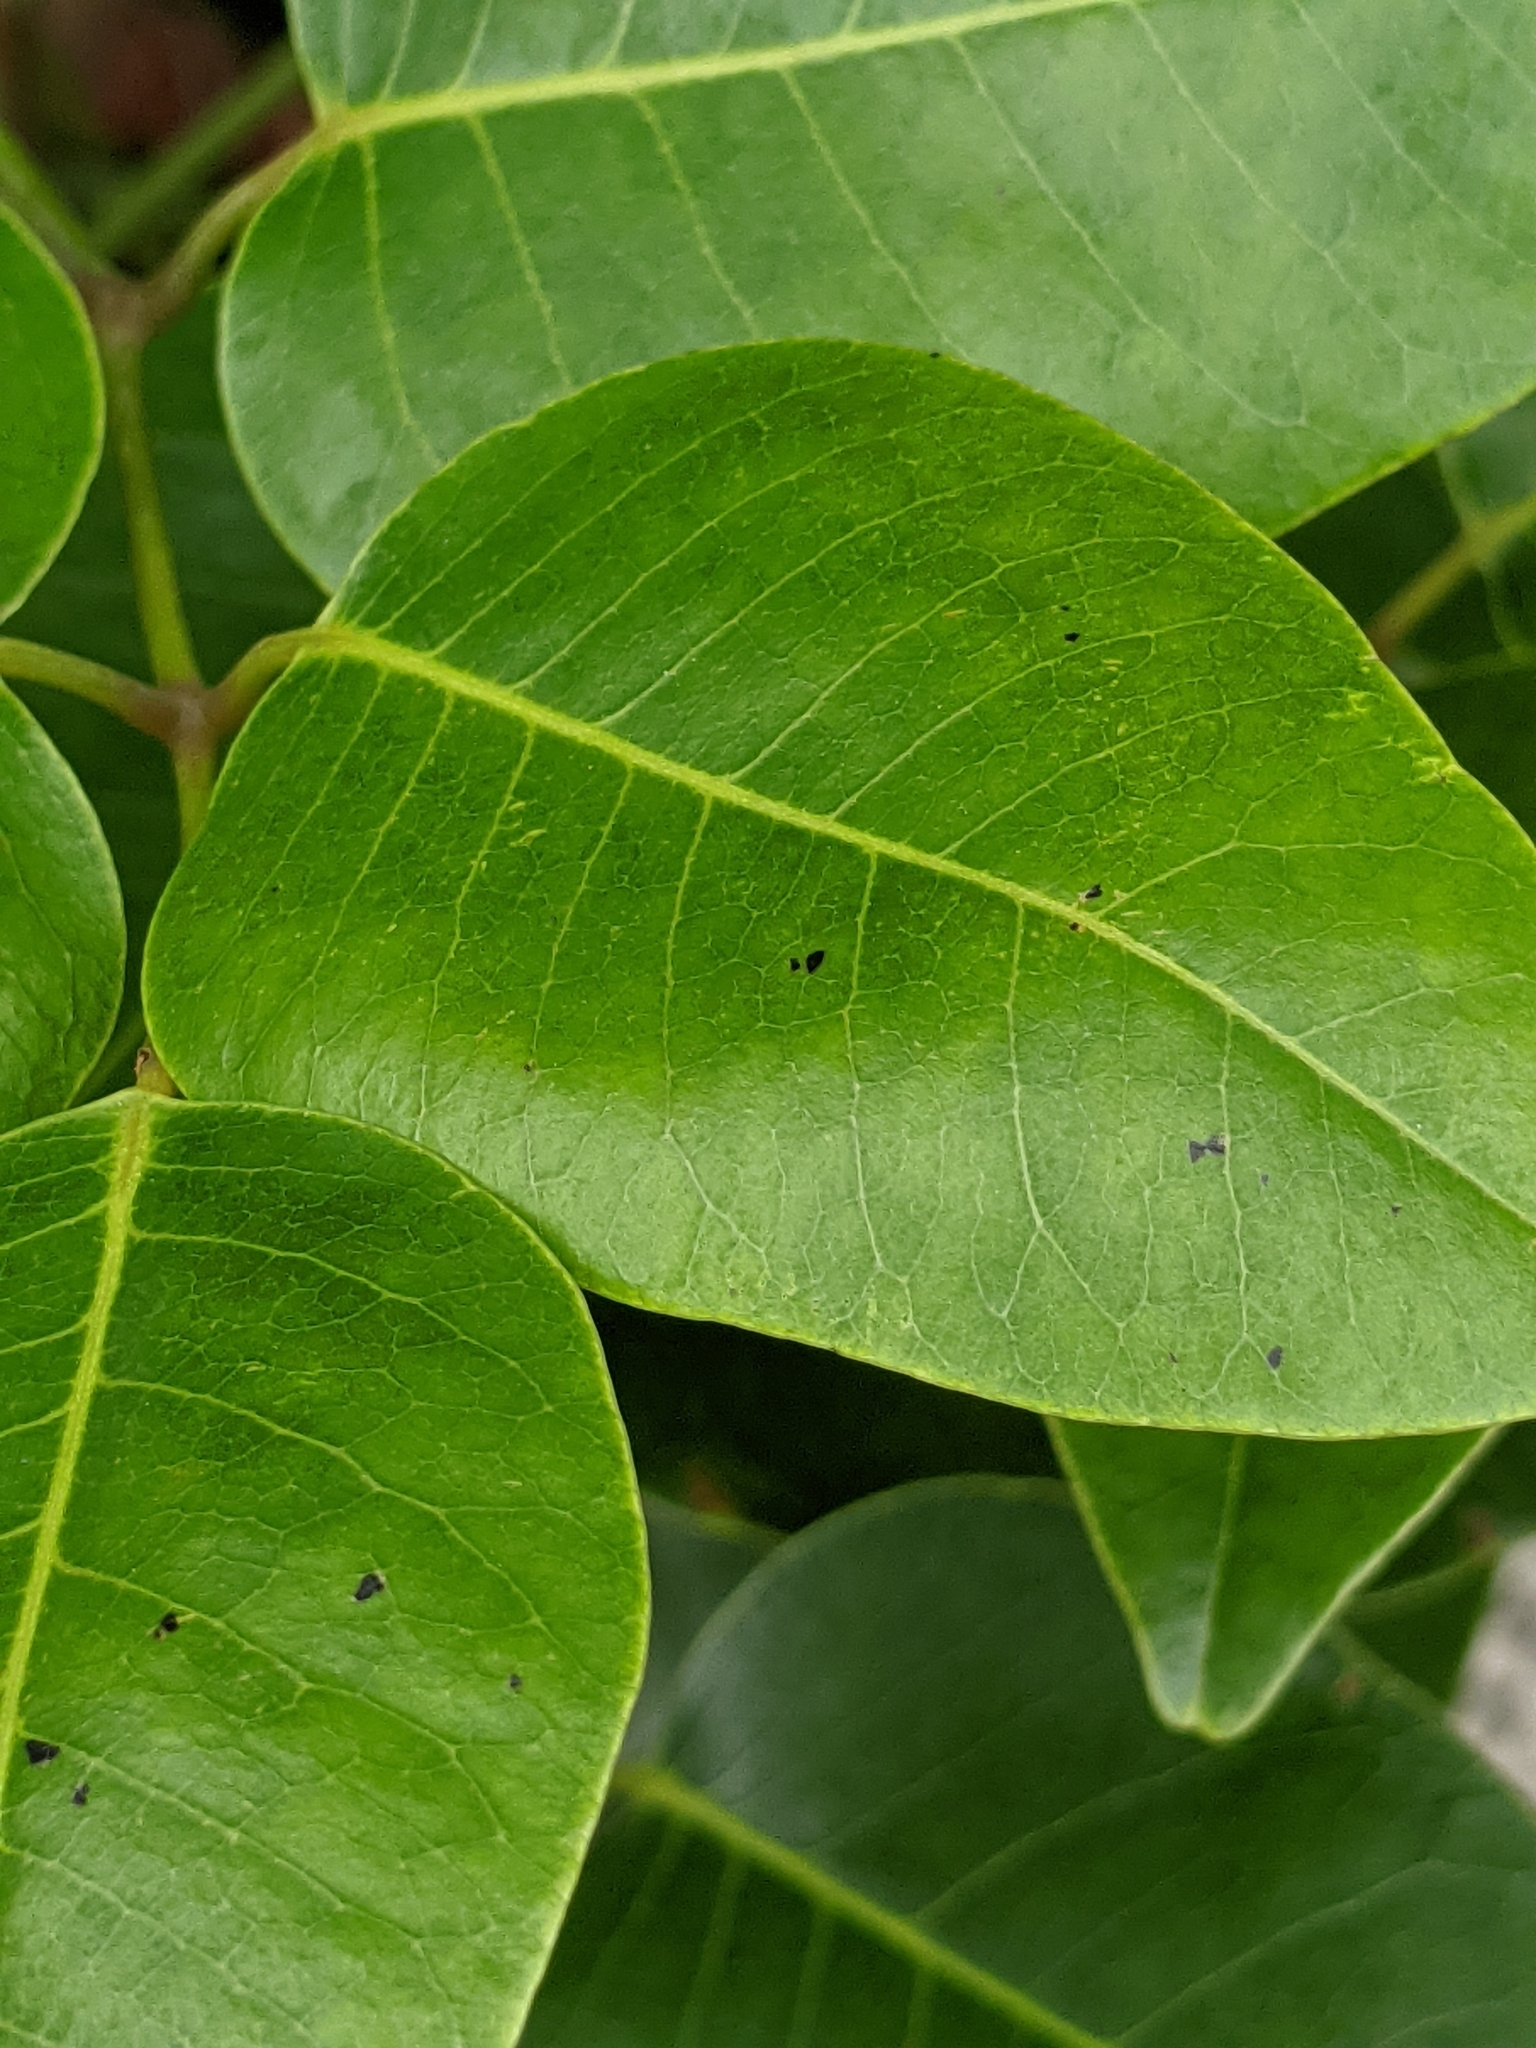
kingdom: Plantae
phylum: Tracheophyta
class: Magnoliopsida
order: Sapindales
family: Anacardiaceae
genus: Metopium
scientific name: Metopium toxiferum
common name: Florida poisontree
